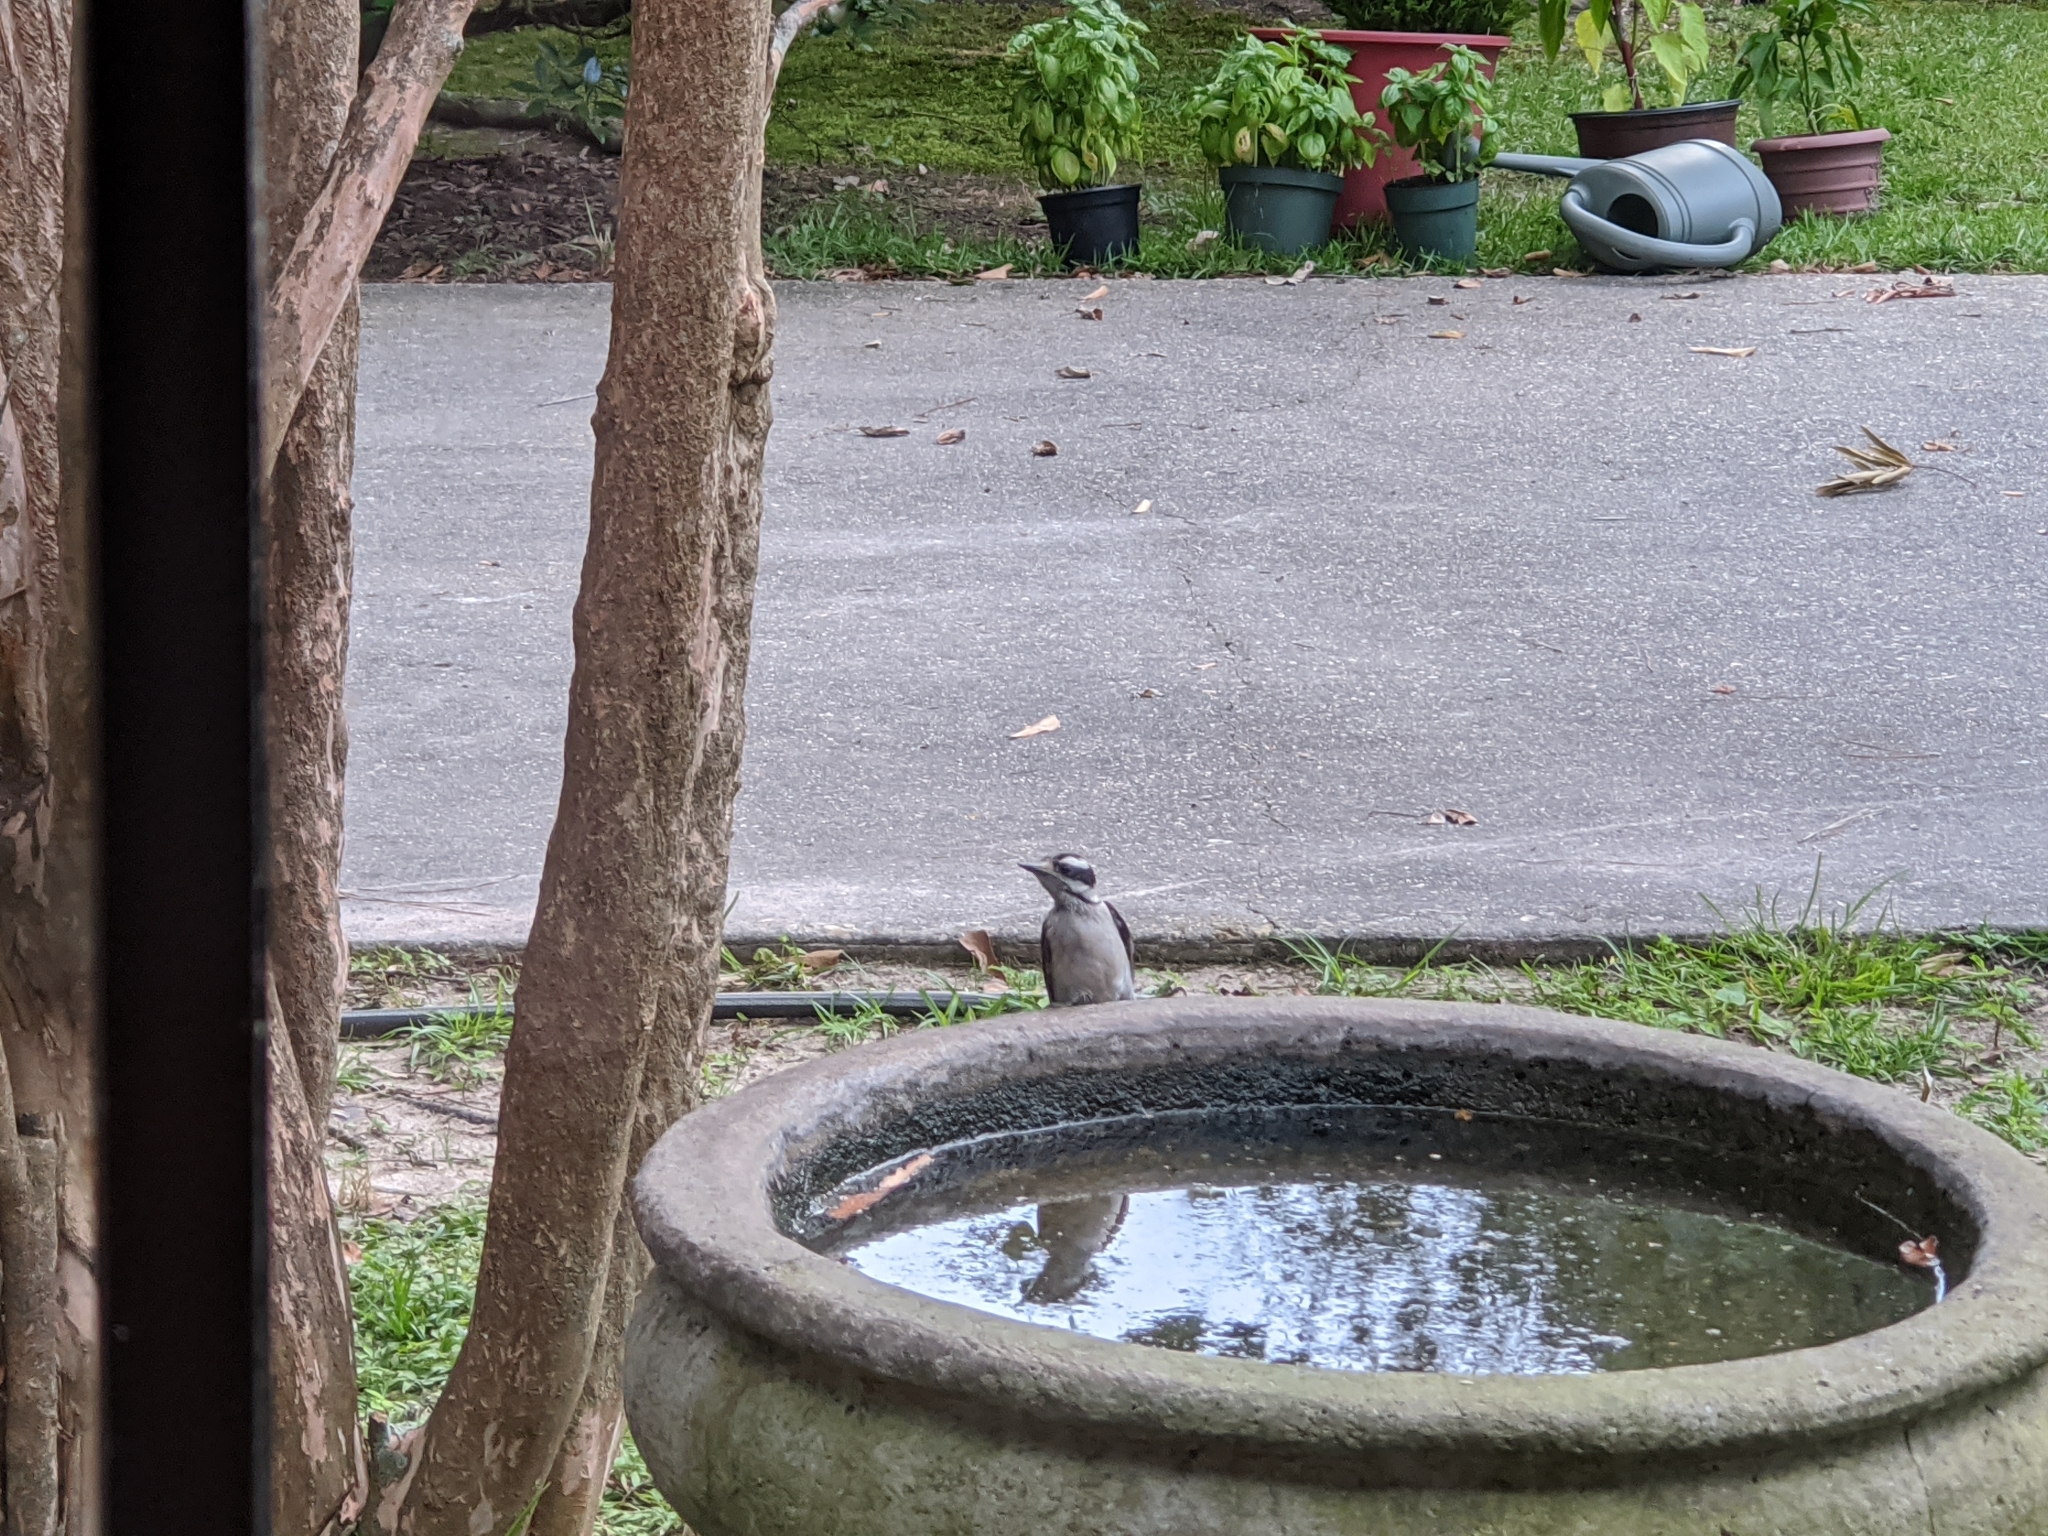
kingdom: Animalia
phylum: Chordata
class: Aves
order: Piciformes
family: Picidae
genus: Dryobates
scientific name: Dryobates pubescens
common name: Downy woodpecker
